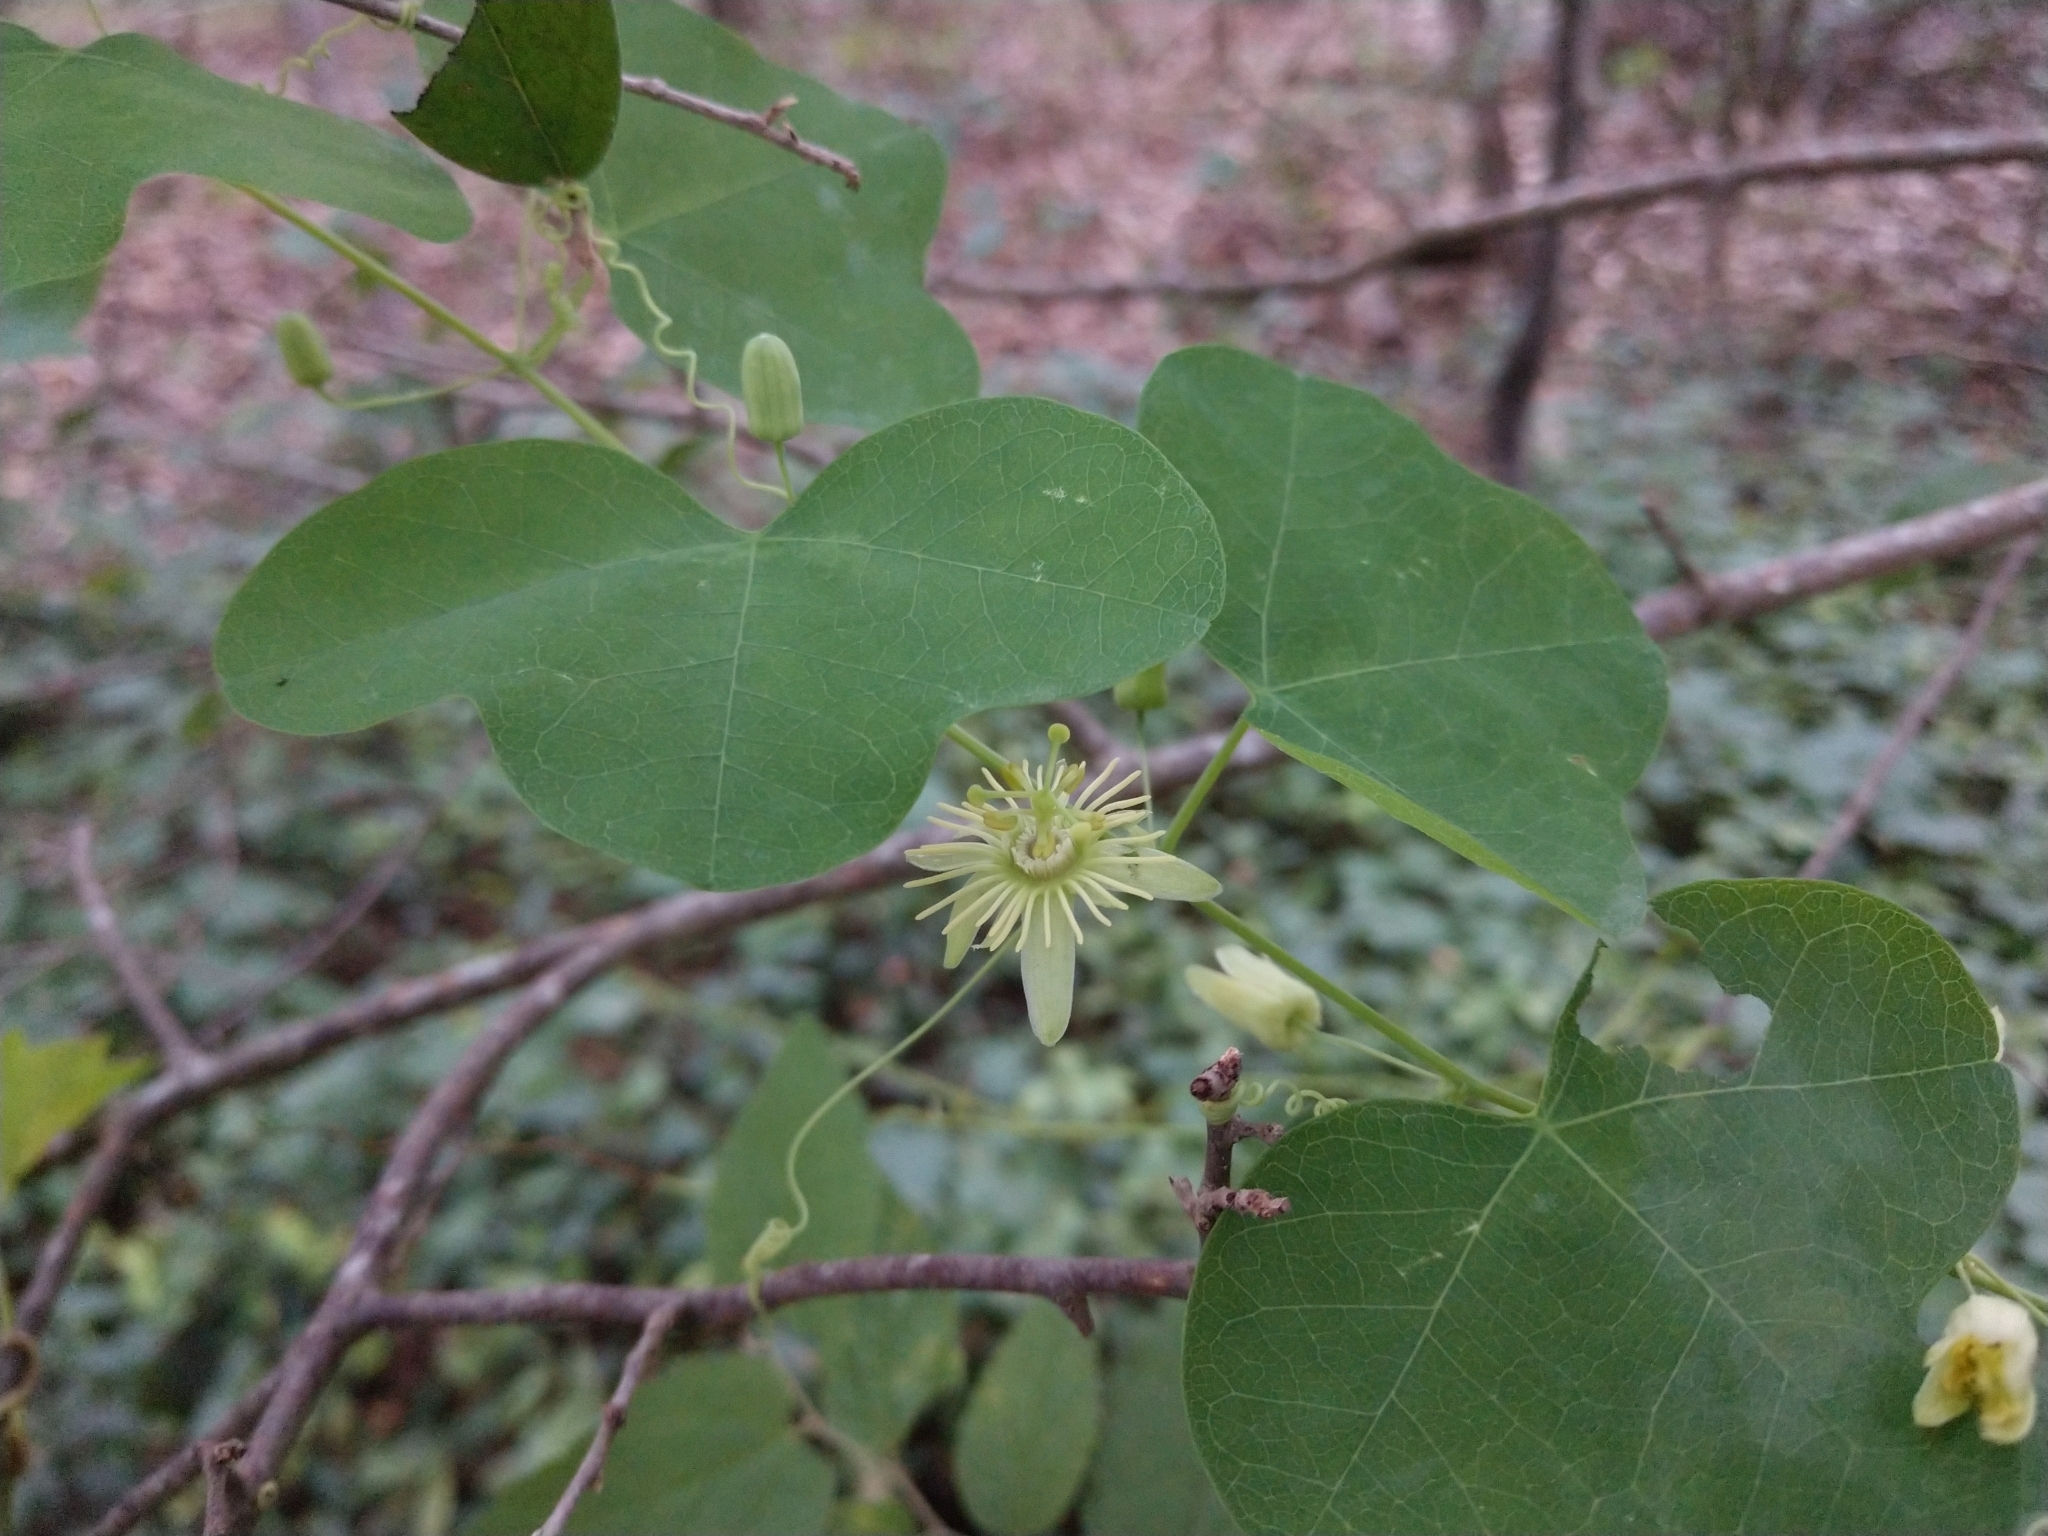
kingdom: Plantae
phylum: Tracheophyta
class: Magnoliopsida
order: Malpighiales
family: Passifloraceae
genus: Passiflora
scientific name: Passiflora lutea
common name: Yellow passionflower
